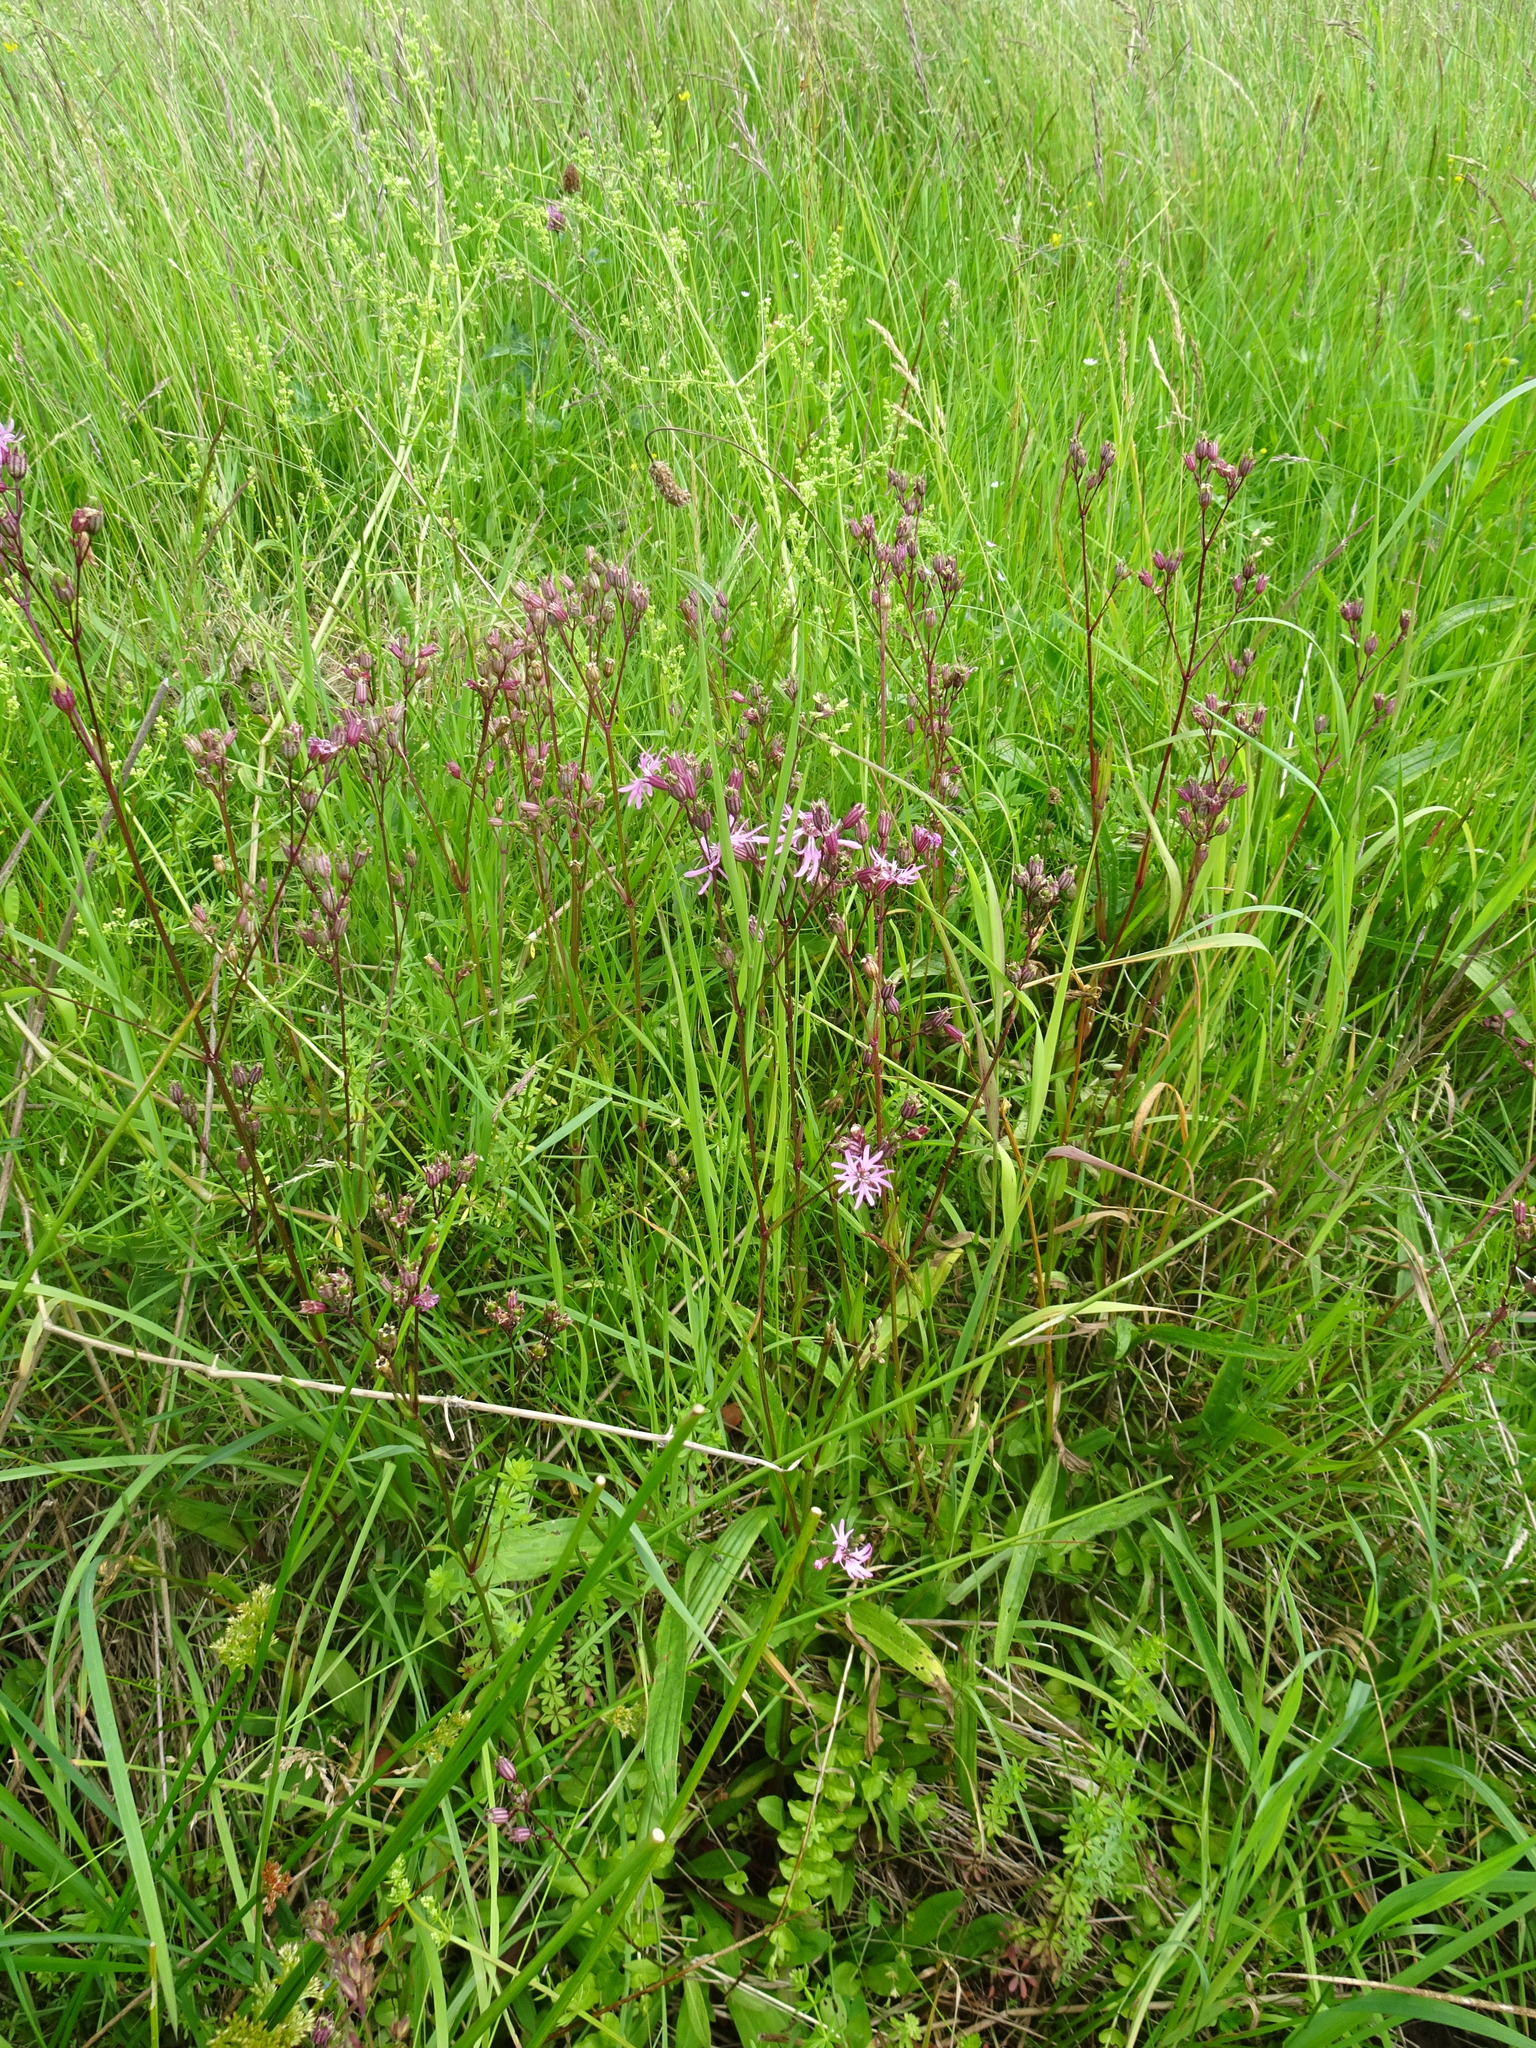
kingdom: Plantae
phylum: Tracheophyta
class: Magnoliopsida
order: Caryophyllales
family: Caryophyllaceae
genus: Silene
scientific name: Silene flos-cuculi
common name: Ragged-robin
